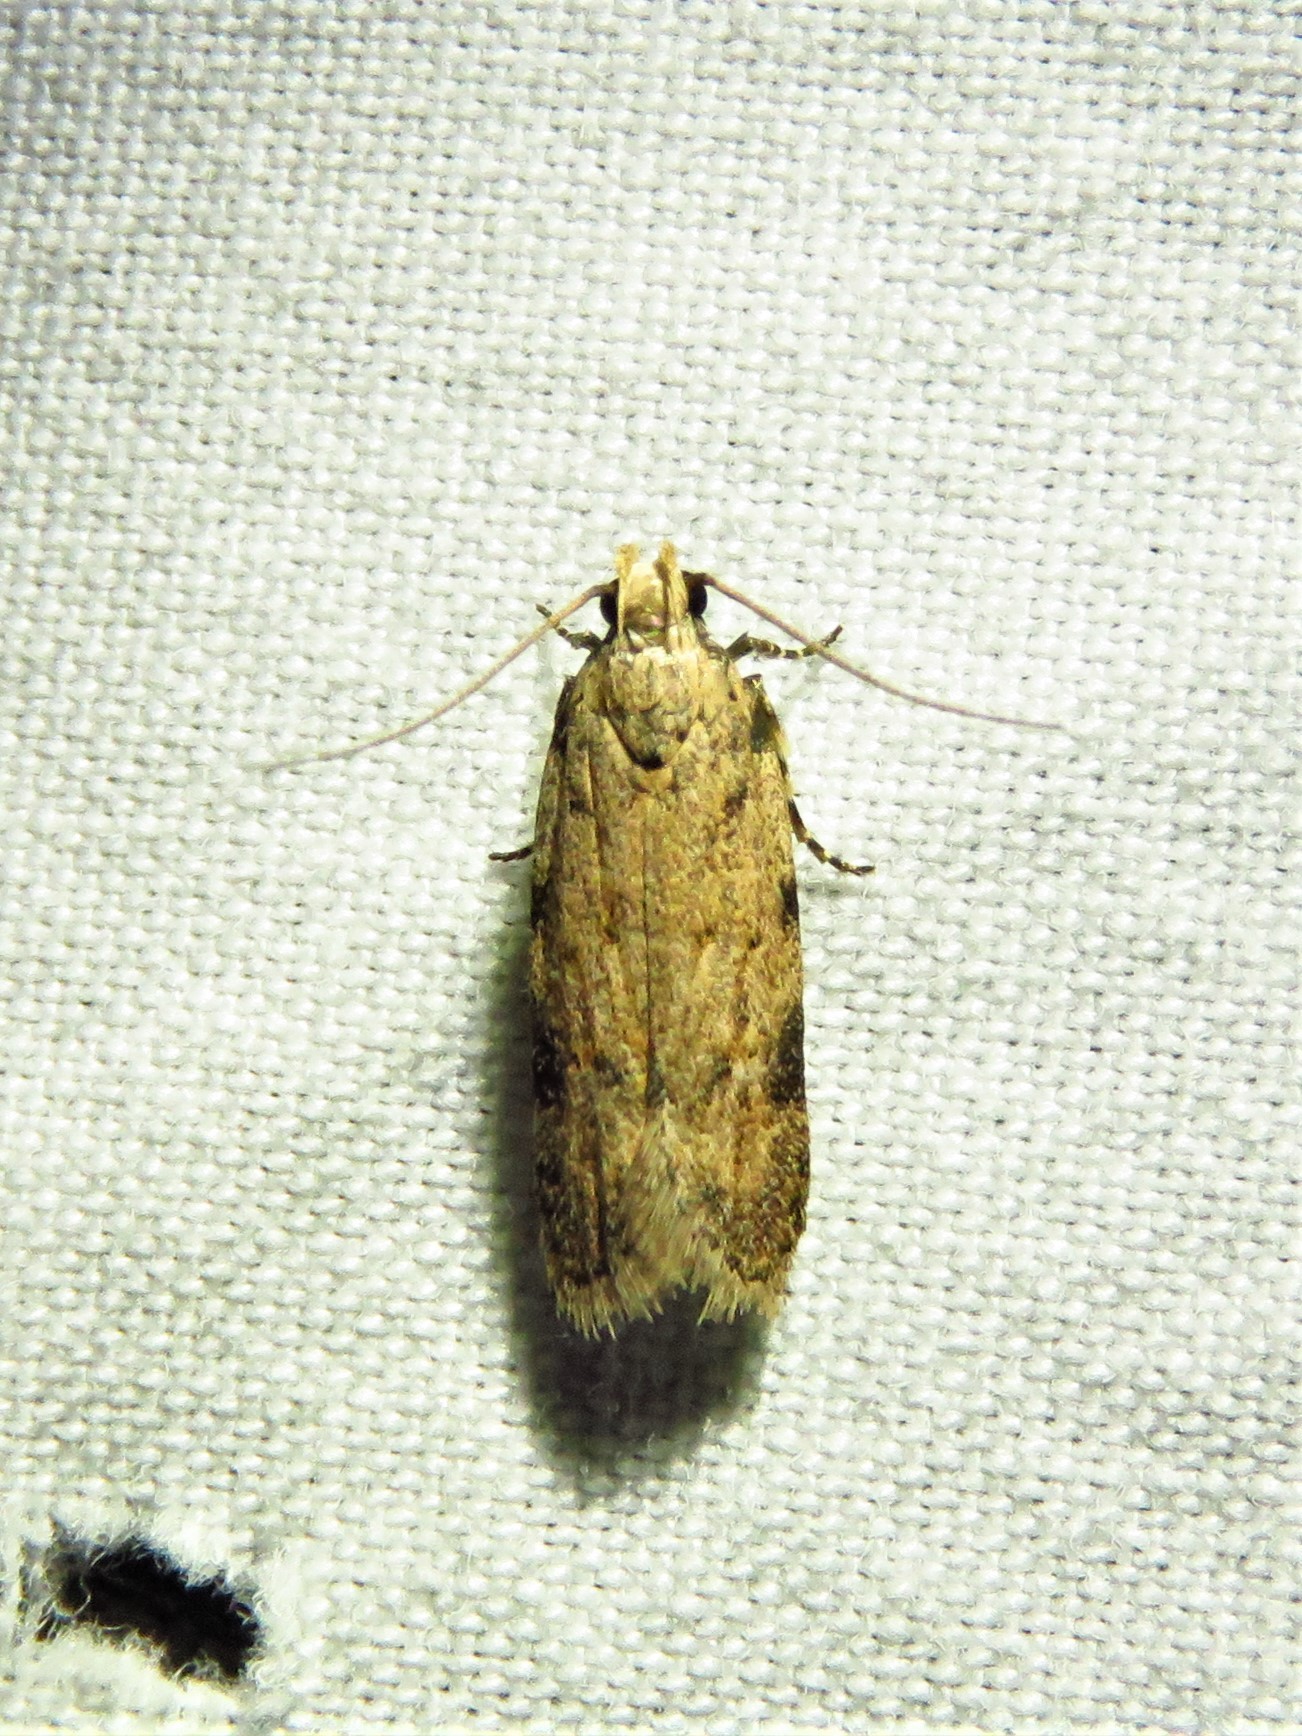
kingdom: Animalia
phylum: Arthropoda
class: Insecta
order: Lepidoptera
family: Gelechiidae
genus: Friseria
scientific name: Friseria cockerelli
